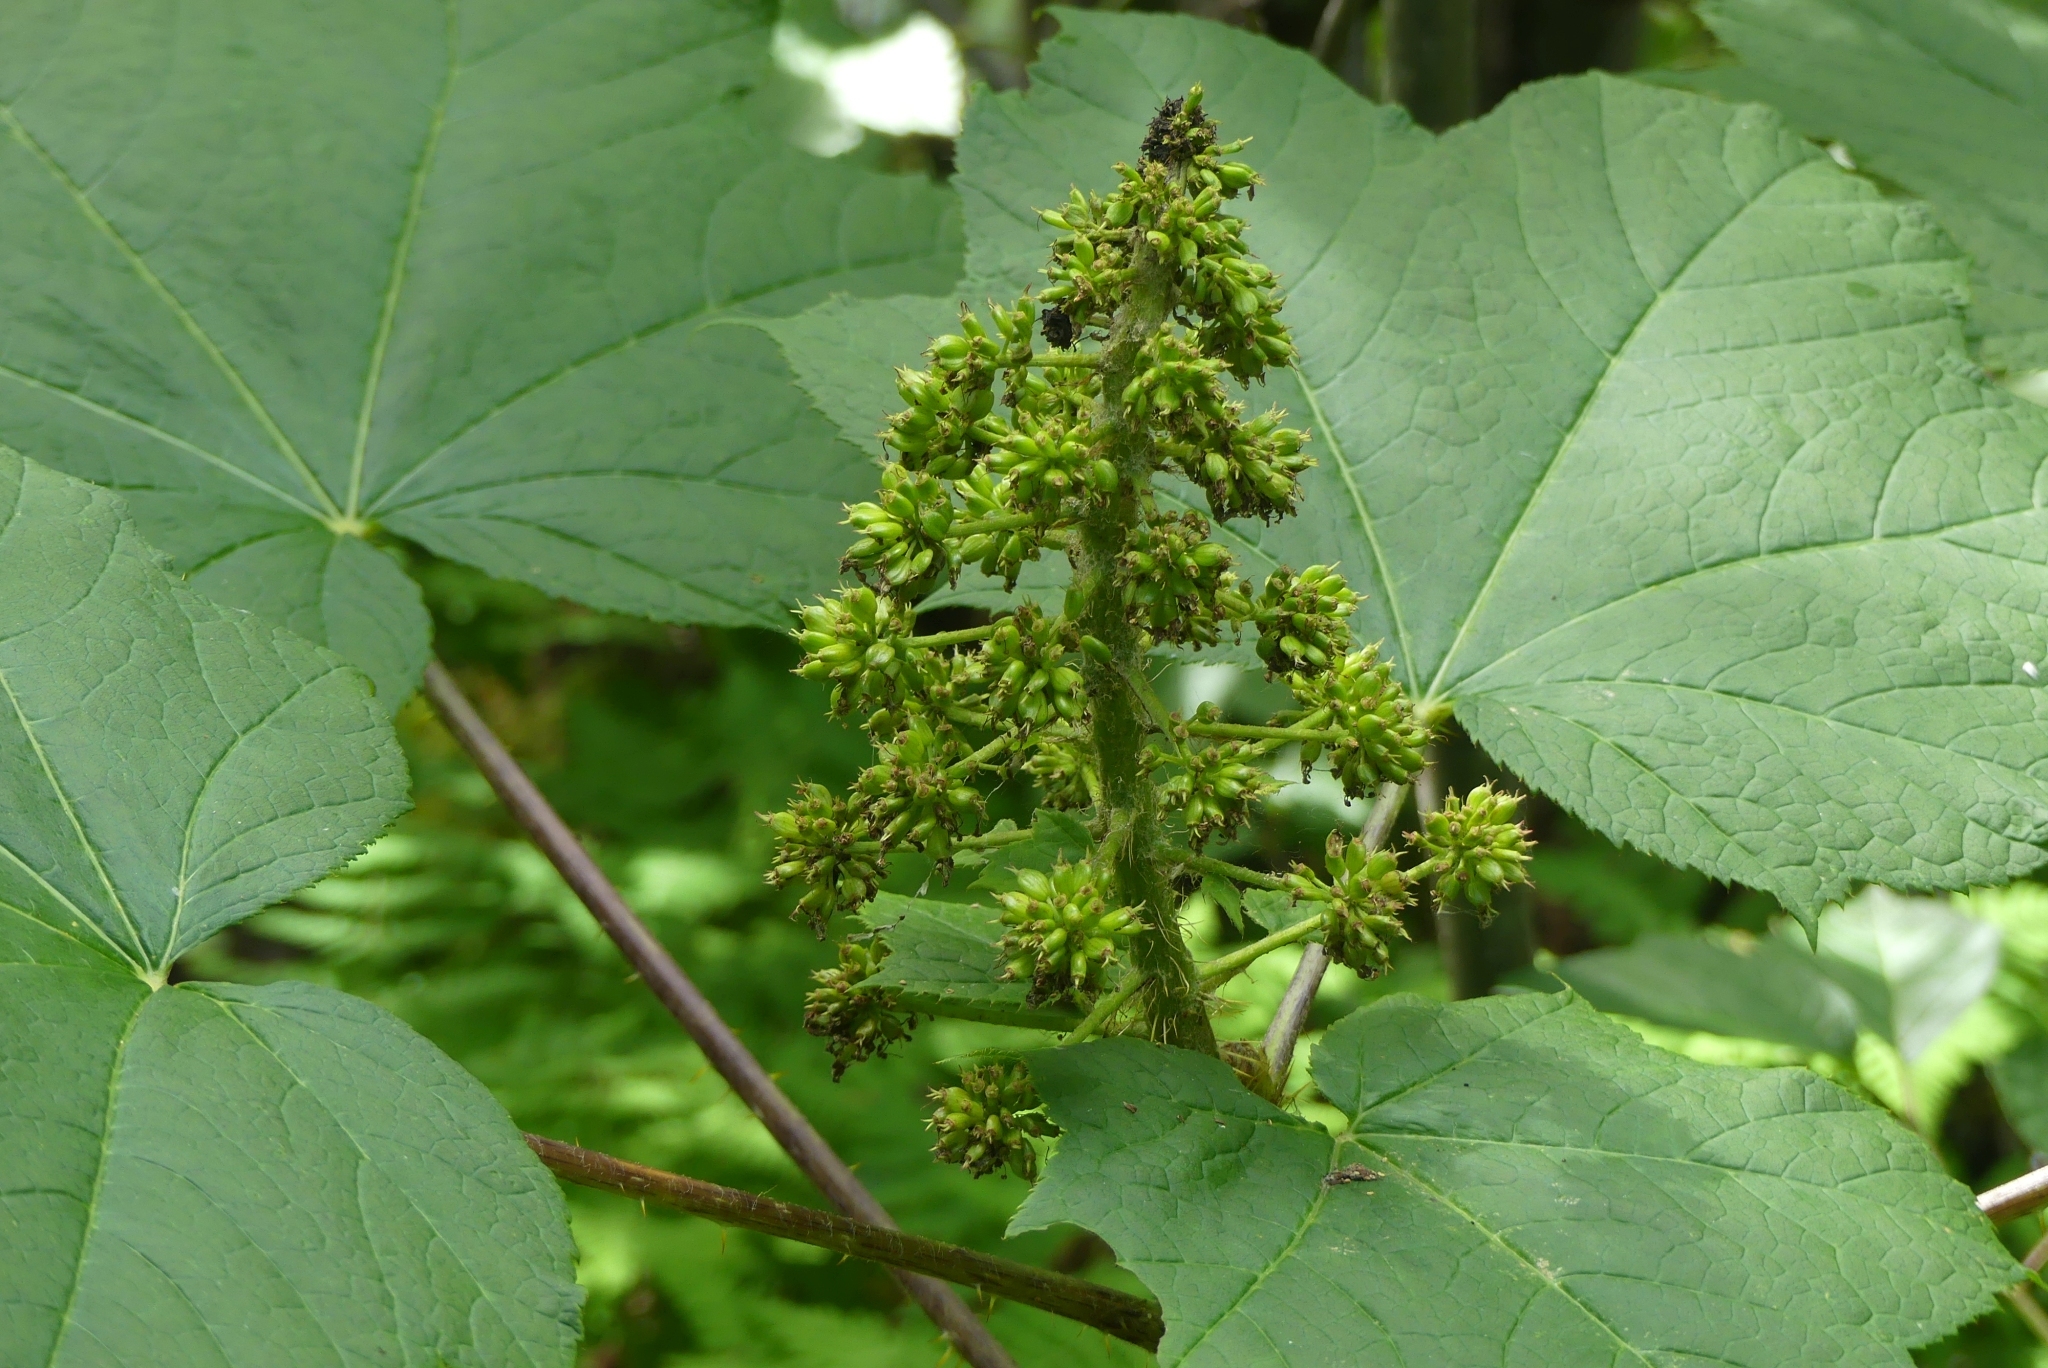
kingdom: Plantae
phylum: Tracheophyta
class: Magnoliopsida
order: Apiales
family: Araliaceae
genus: Oplopanax
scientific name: Oplopanax horridus
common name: Devil's walking-stick
